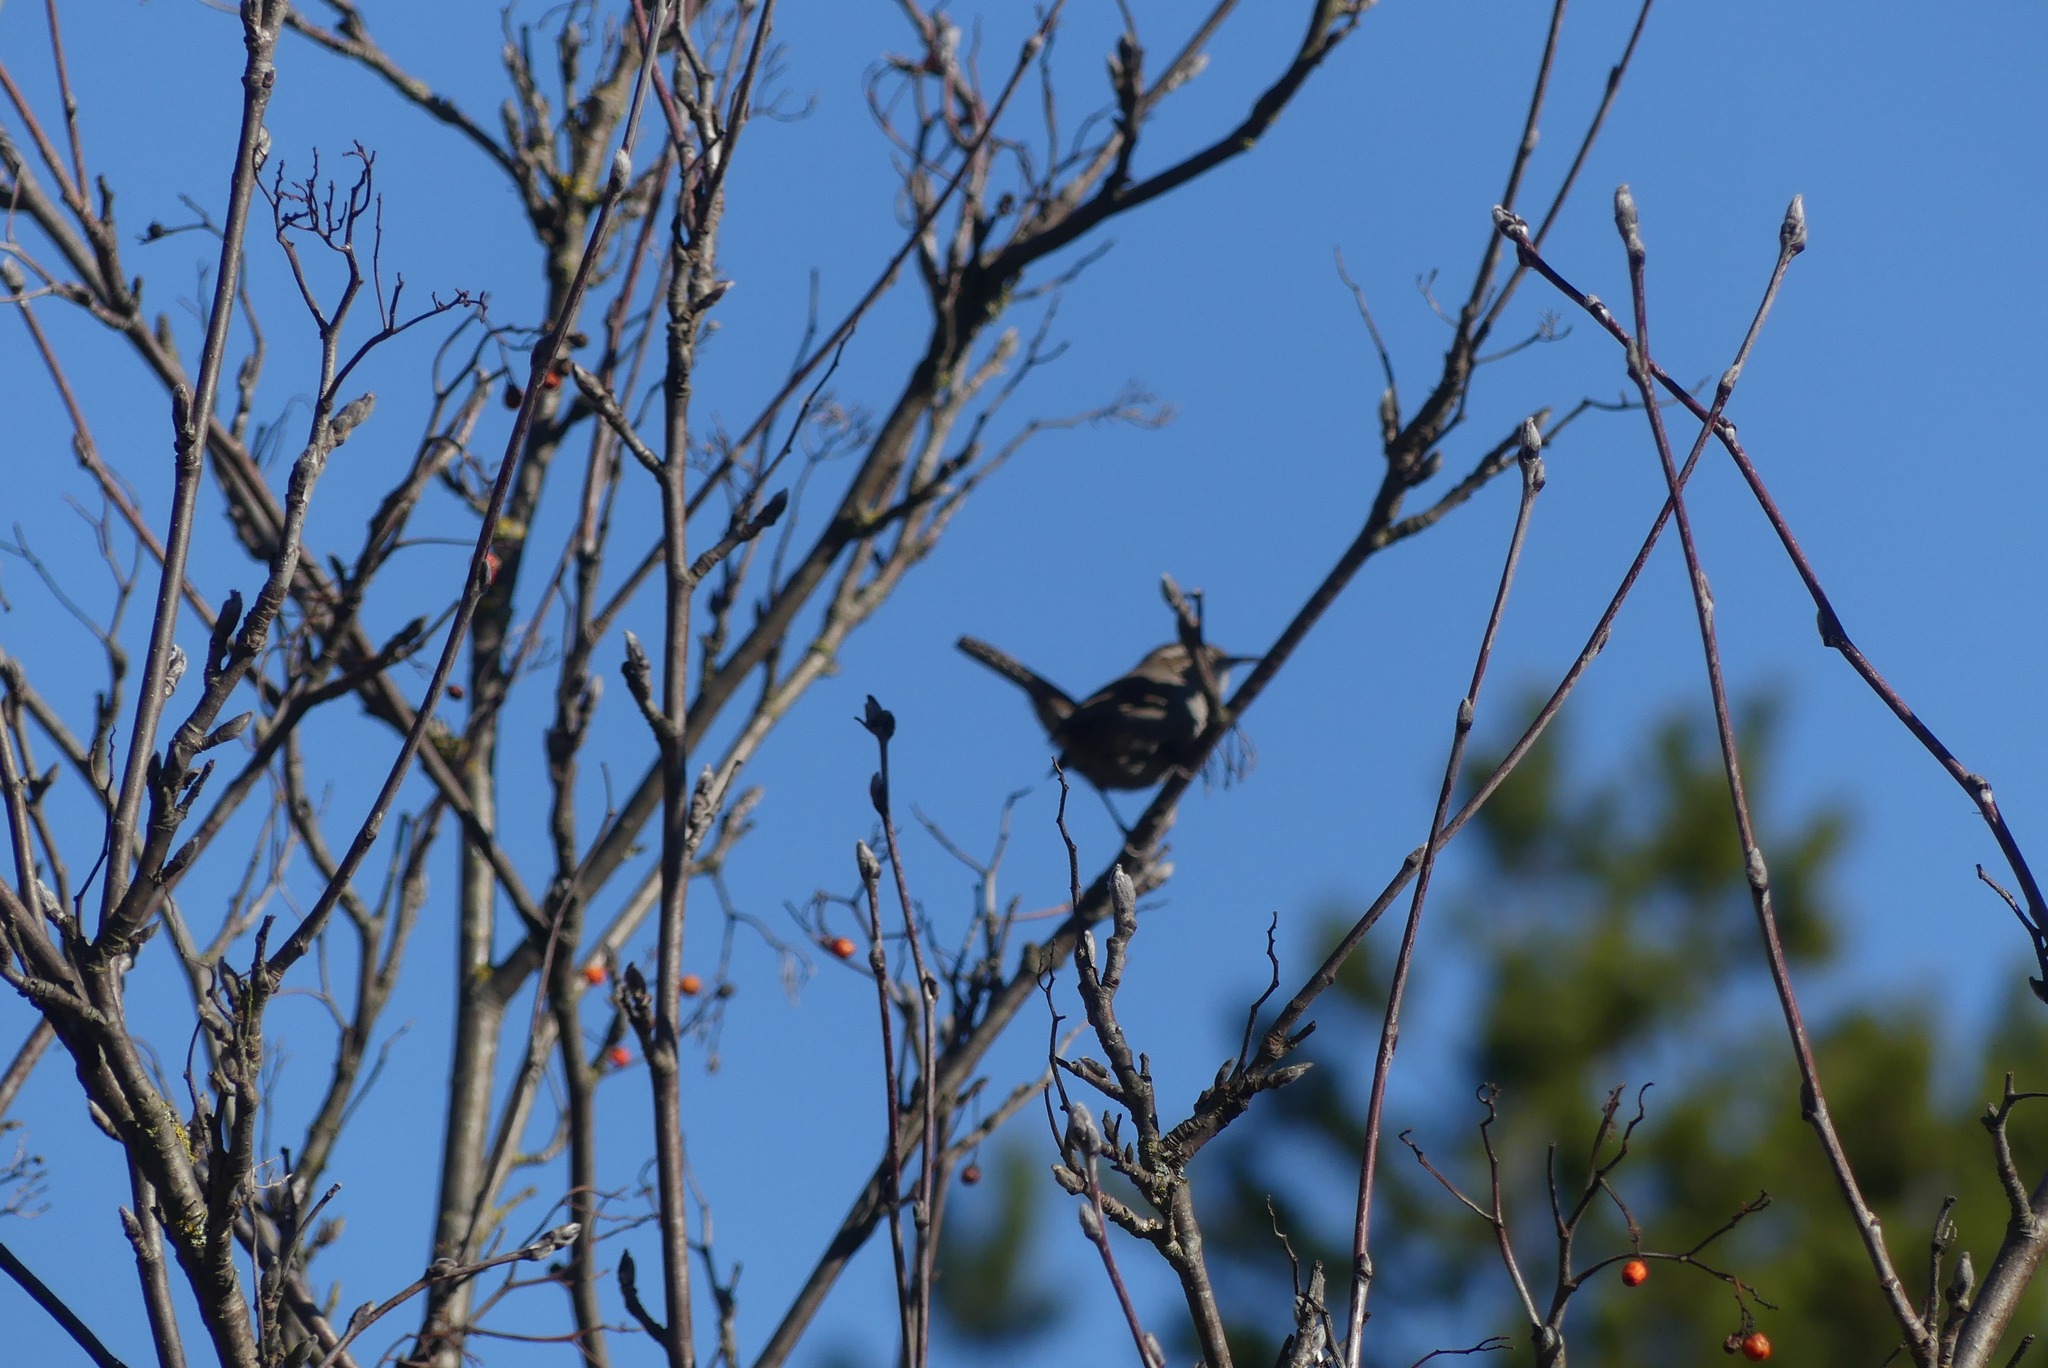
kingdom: Animalia
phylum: Chordata
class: Aves
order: Passeriformes
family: Troglodytidae
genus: Thryomanes
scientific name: Thryomanes bewickii
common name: Bewick's wren
